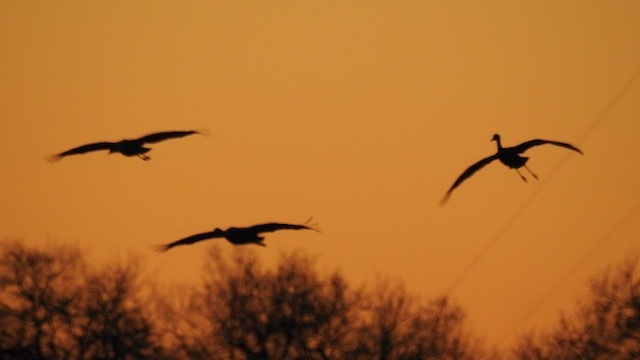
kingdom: Animalia
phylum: Chordata
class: Aves
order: Gruiformes
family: Gruidae
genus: Grus
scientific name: Grus canadensis
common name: Sandhill crane
